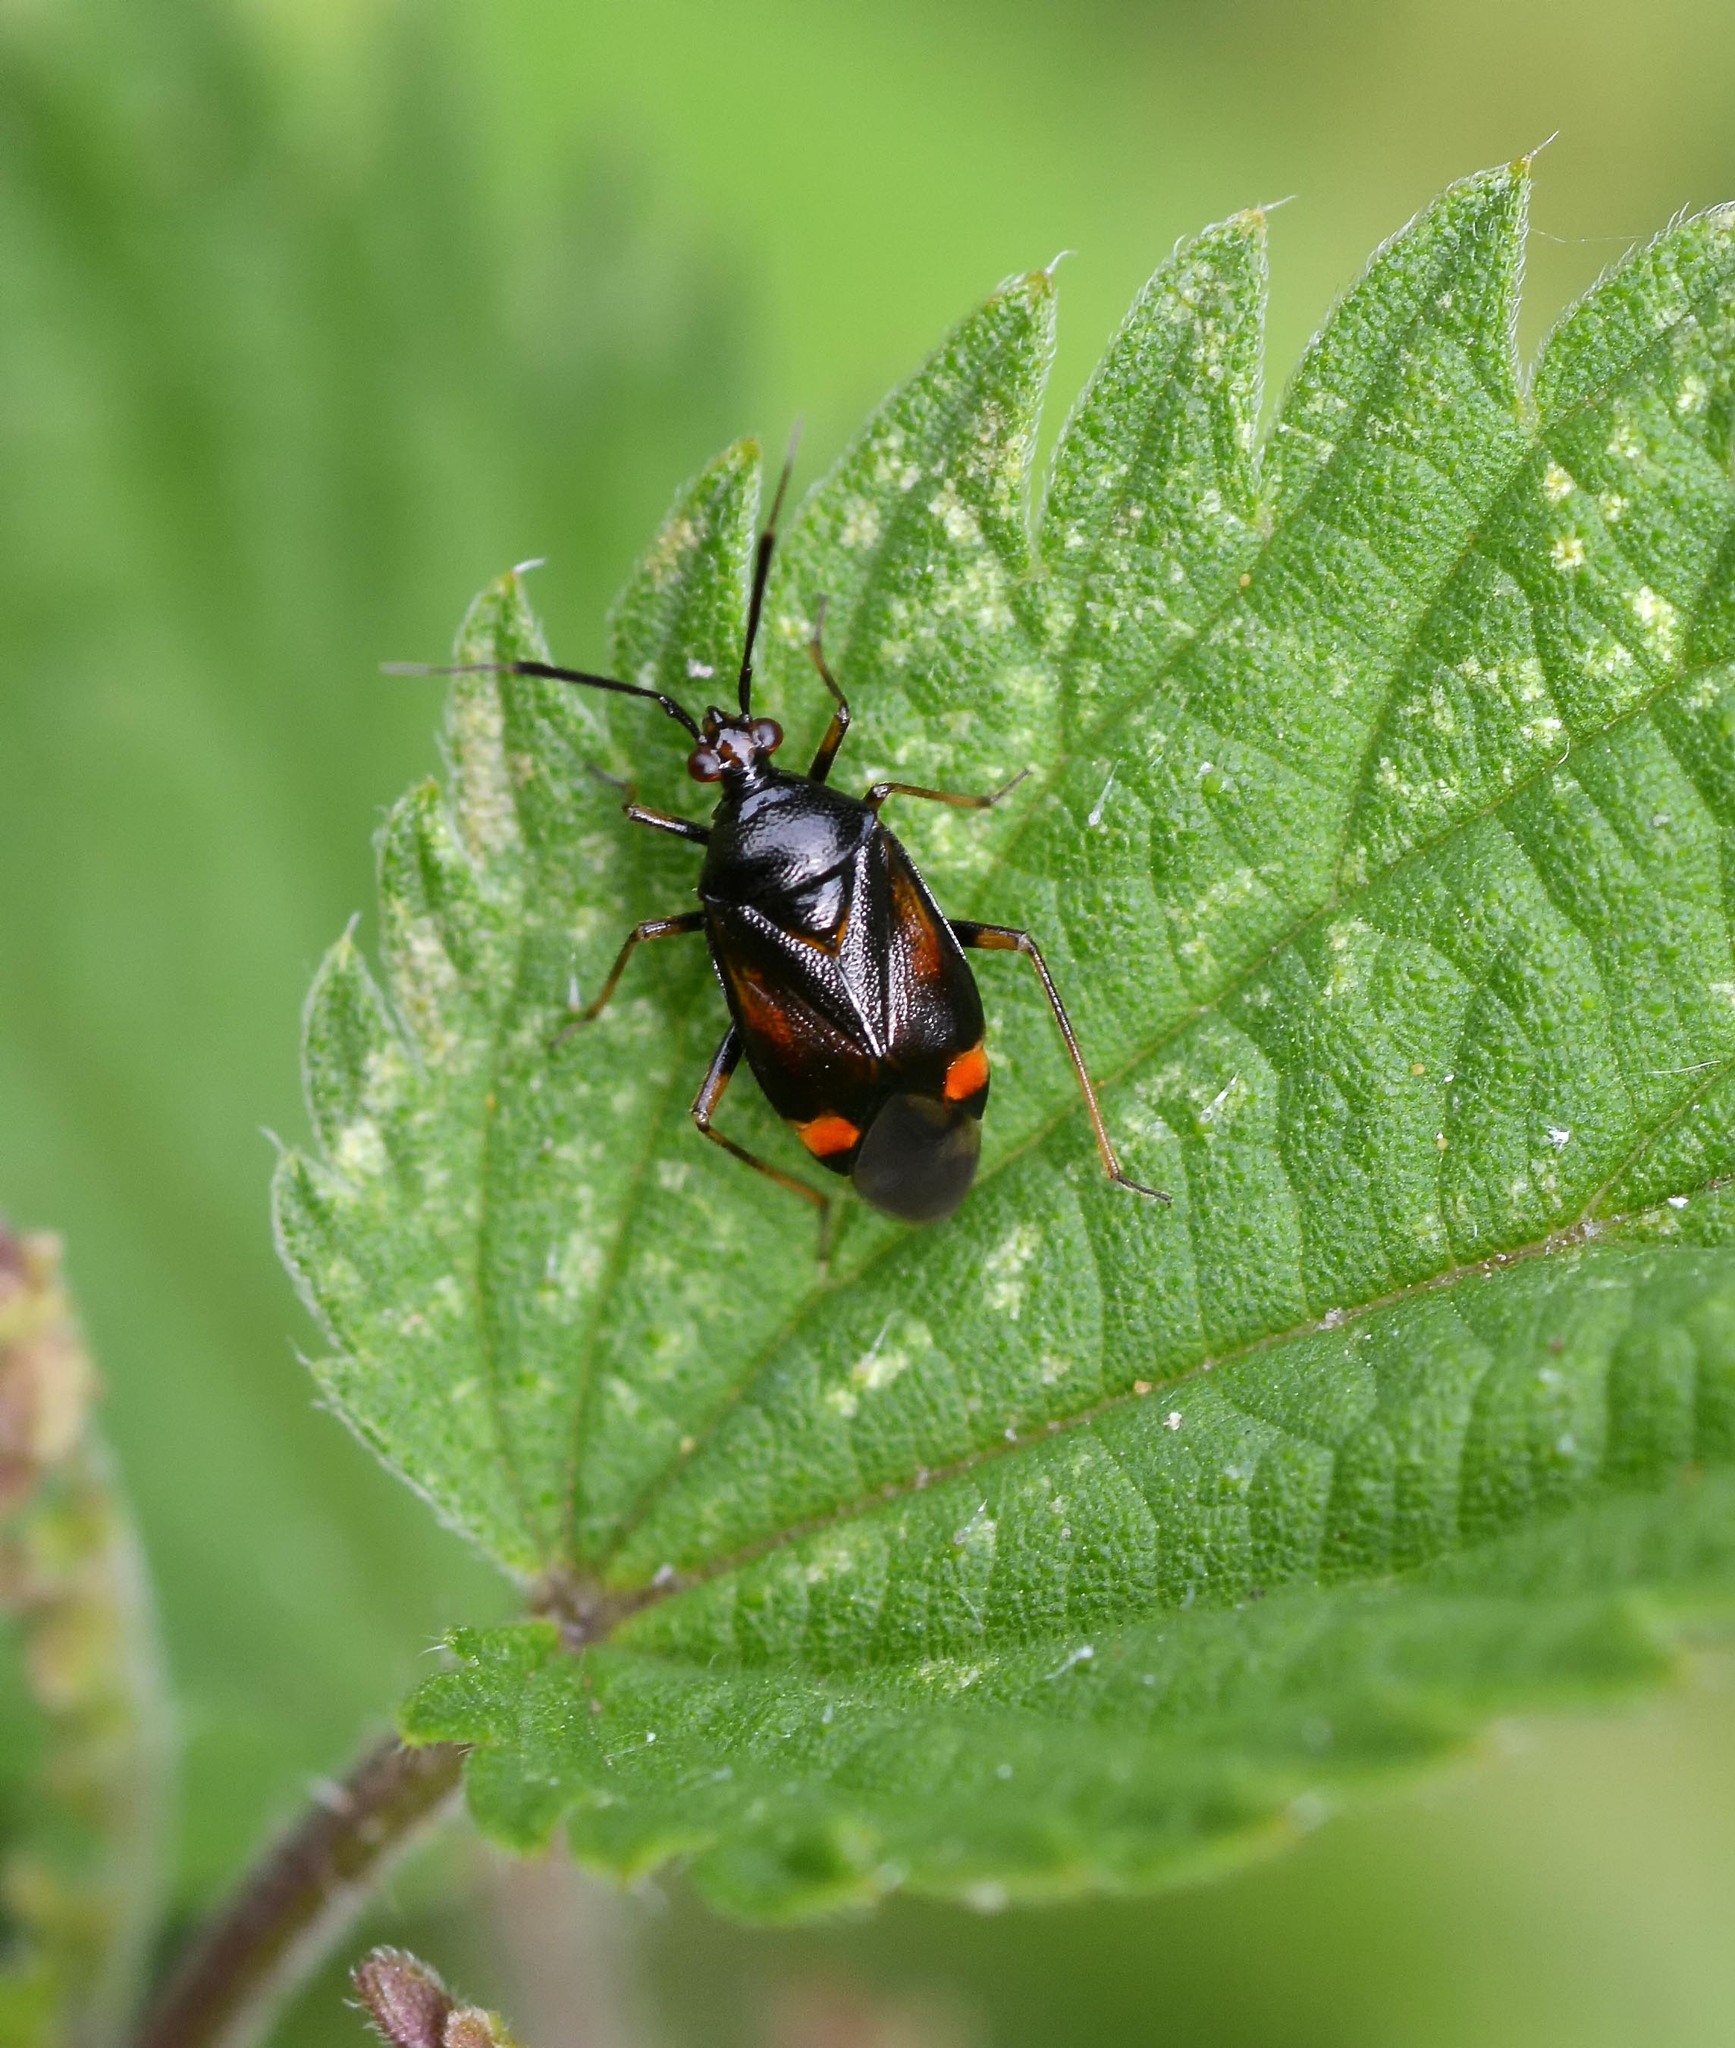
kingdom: Animalia
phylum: Arthropoda
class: Insecta
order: Hemiptera
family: Miridae
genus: Deraeocoris
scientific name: Deraeocoris ruber
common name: Plant bug
